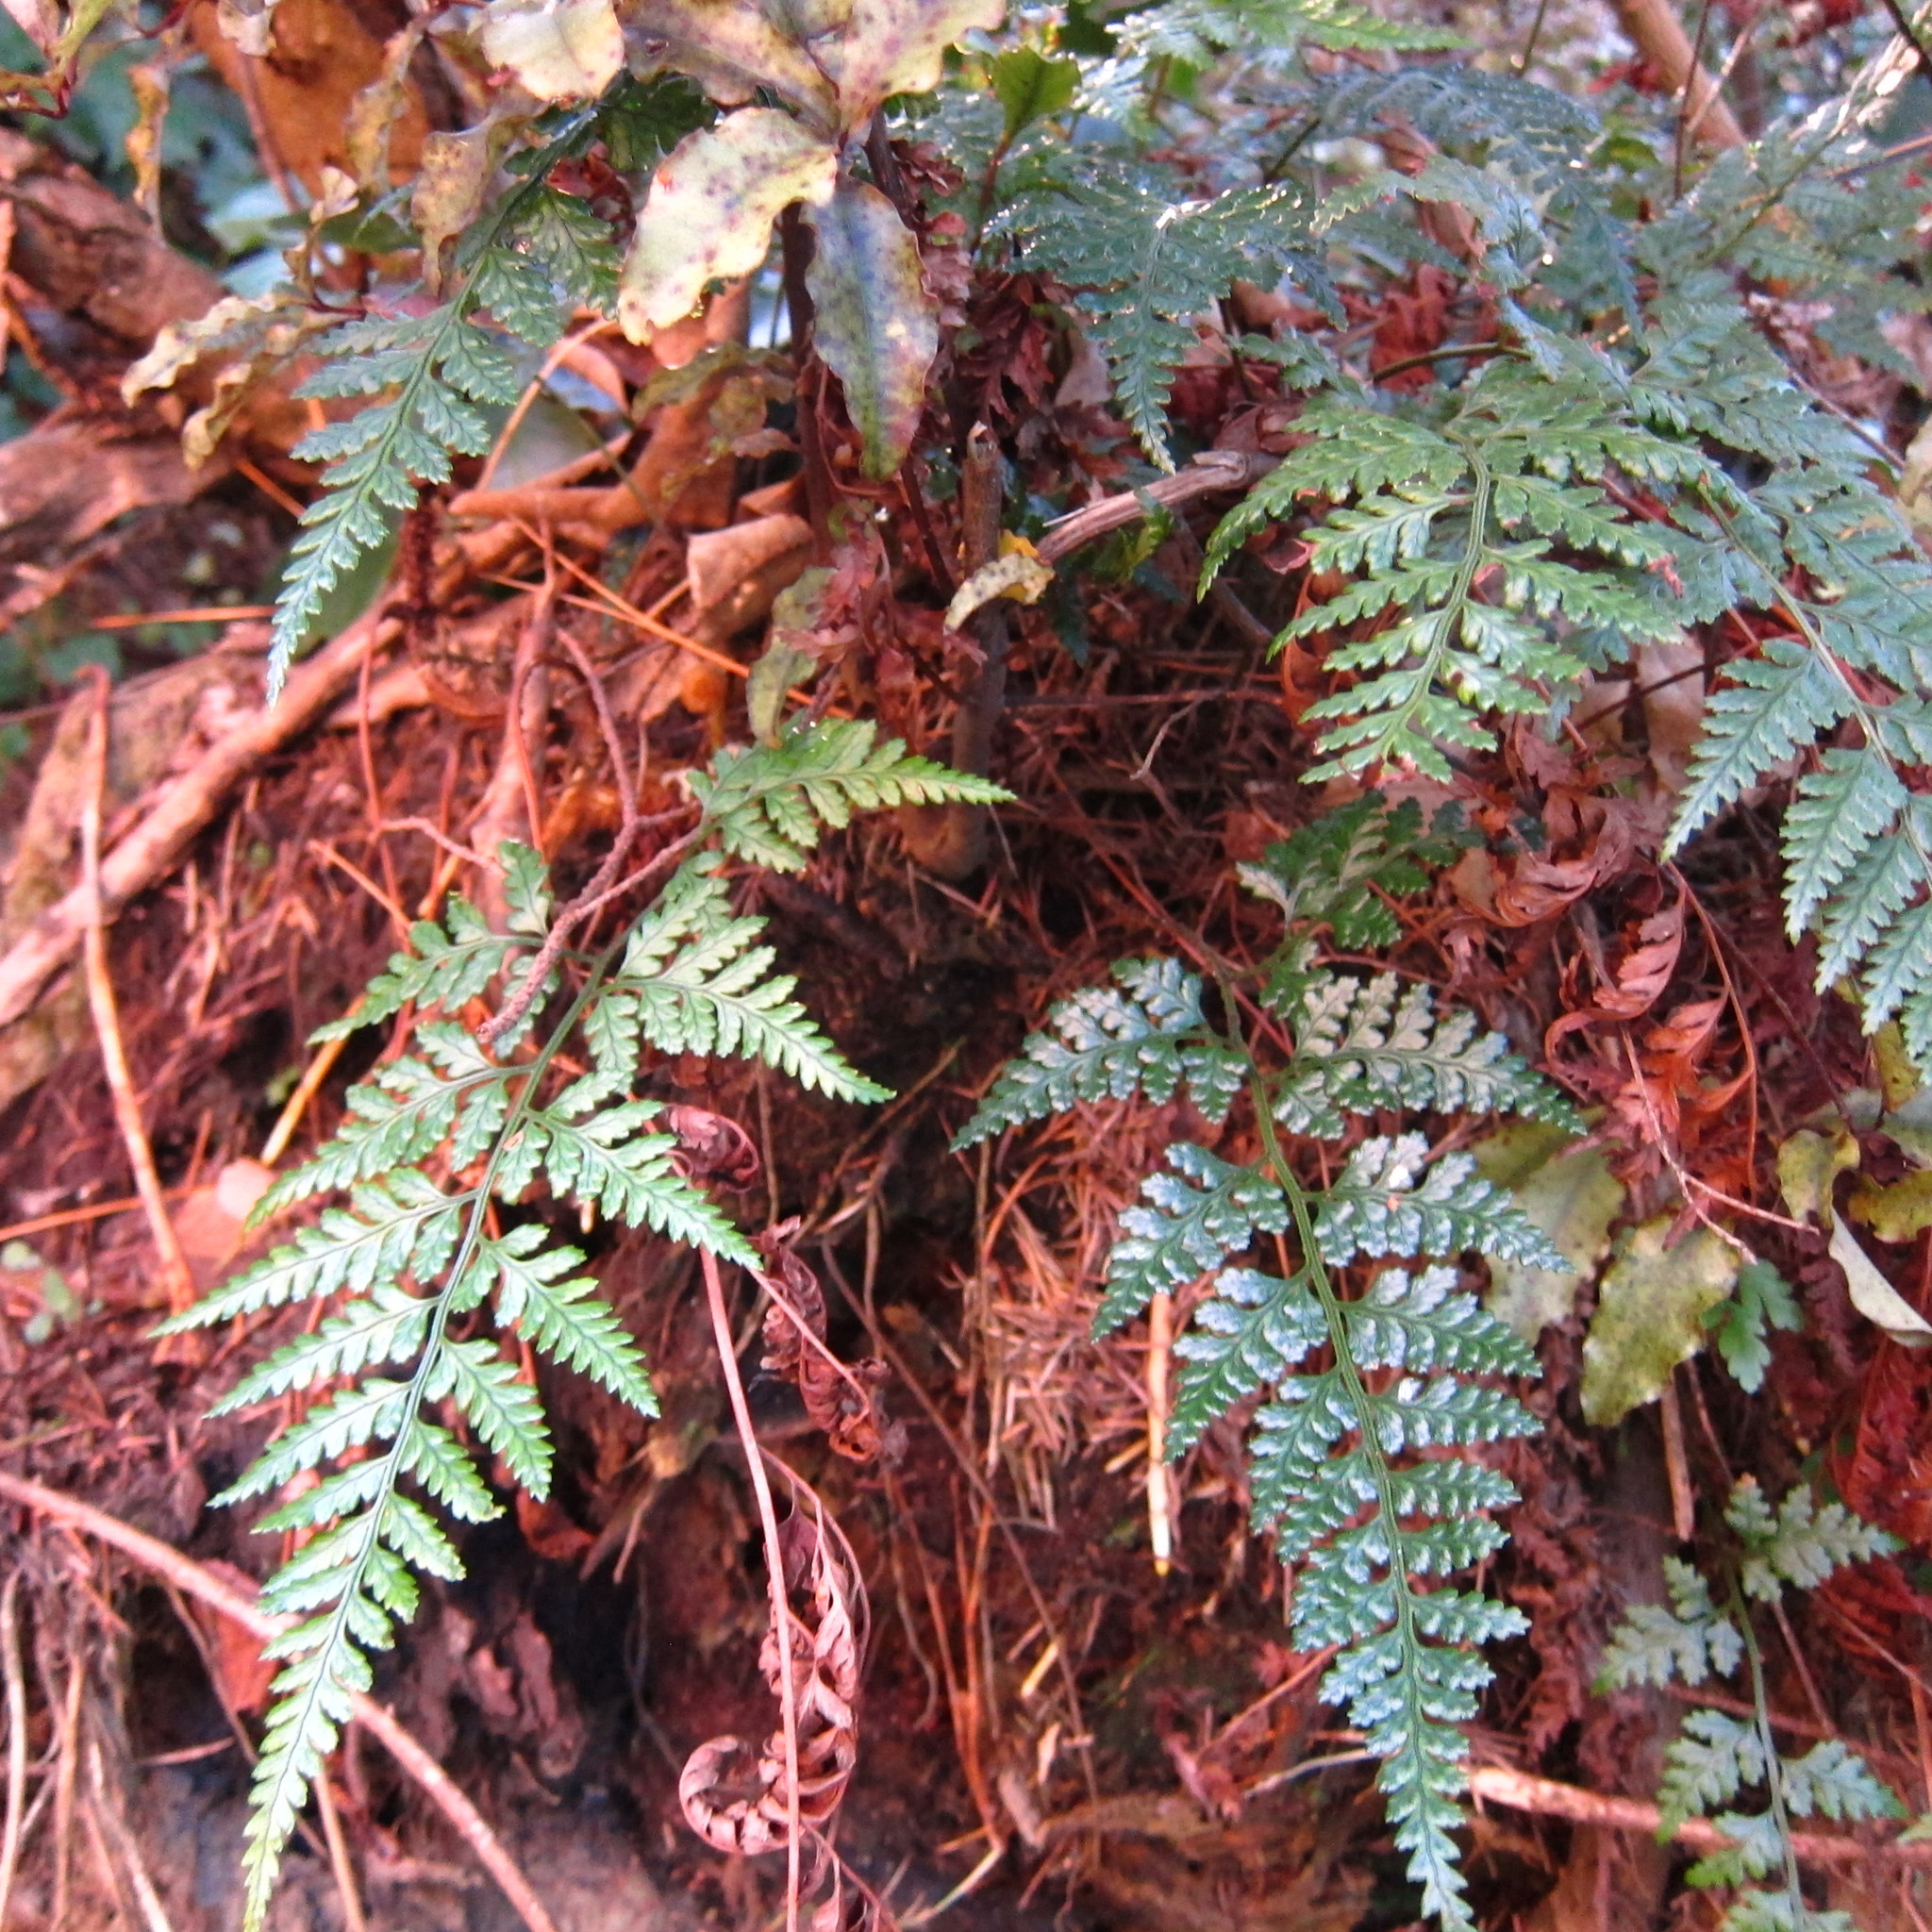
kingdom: Plantae
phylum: Tracheophyta
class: Polypodiopsida
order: Polypodiales
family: Dryopteridaceae
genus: Rumohra
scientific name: Rumohra adiantiformis
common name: Leather fern
